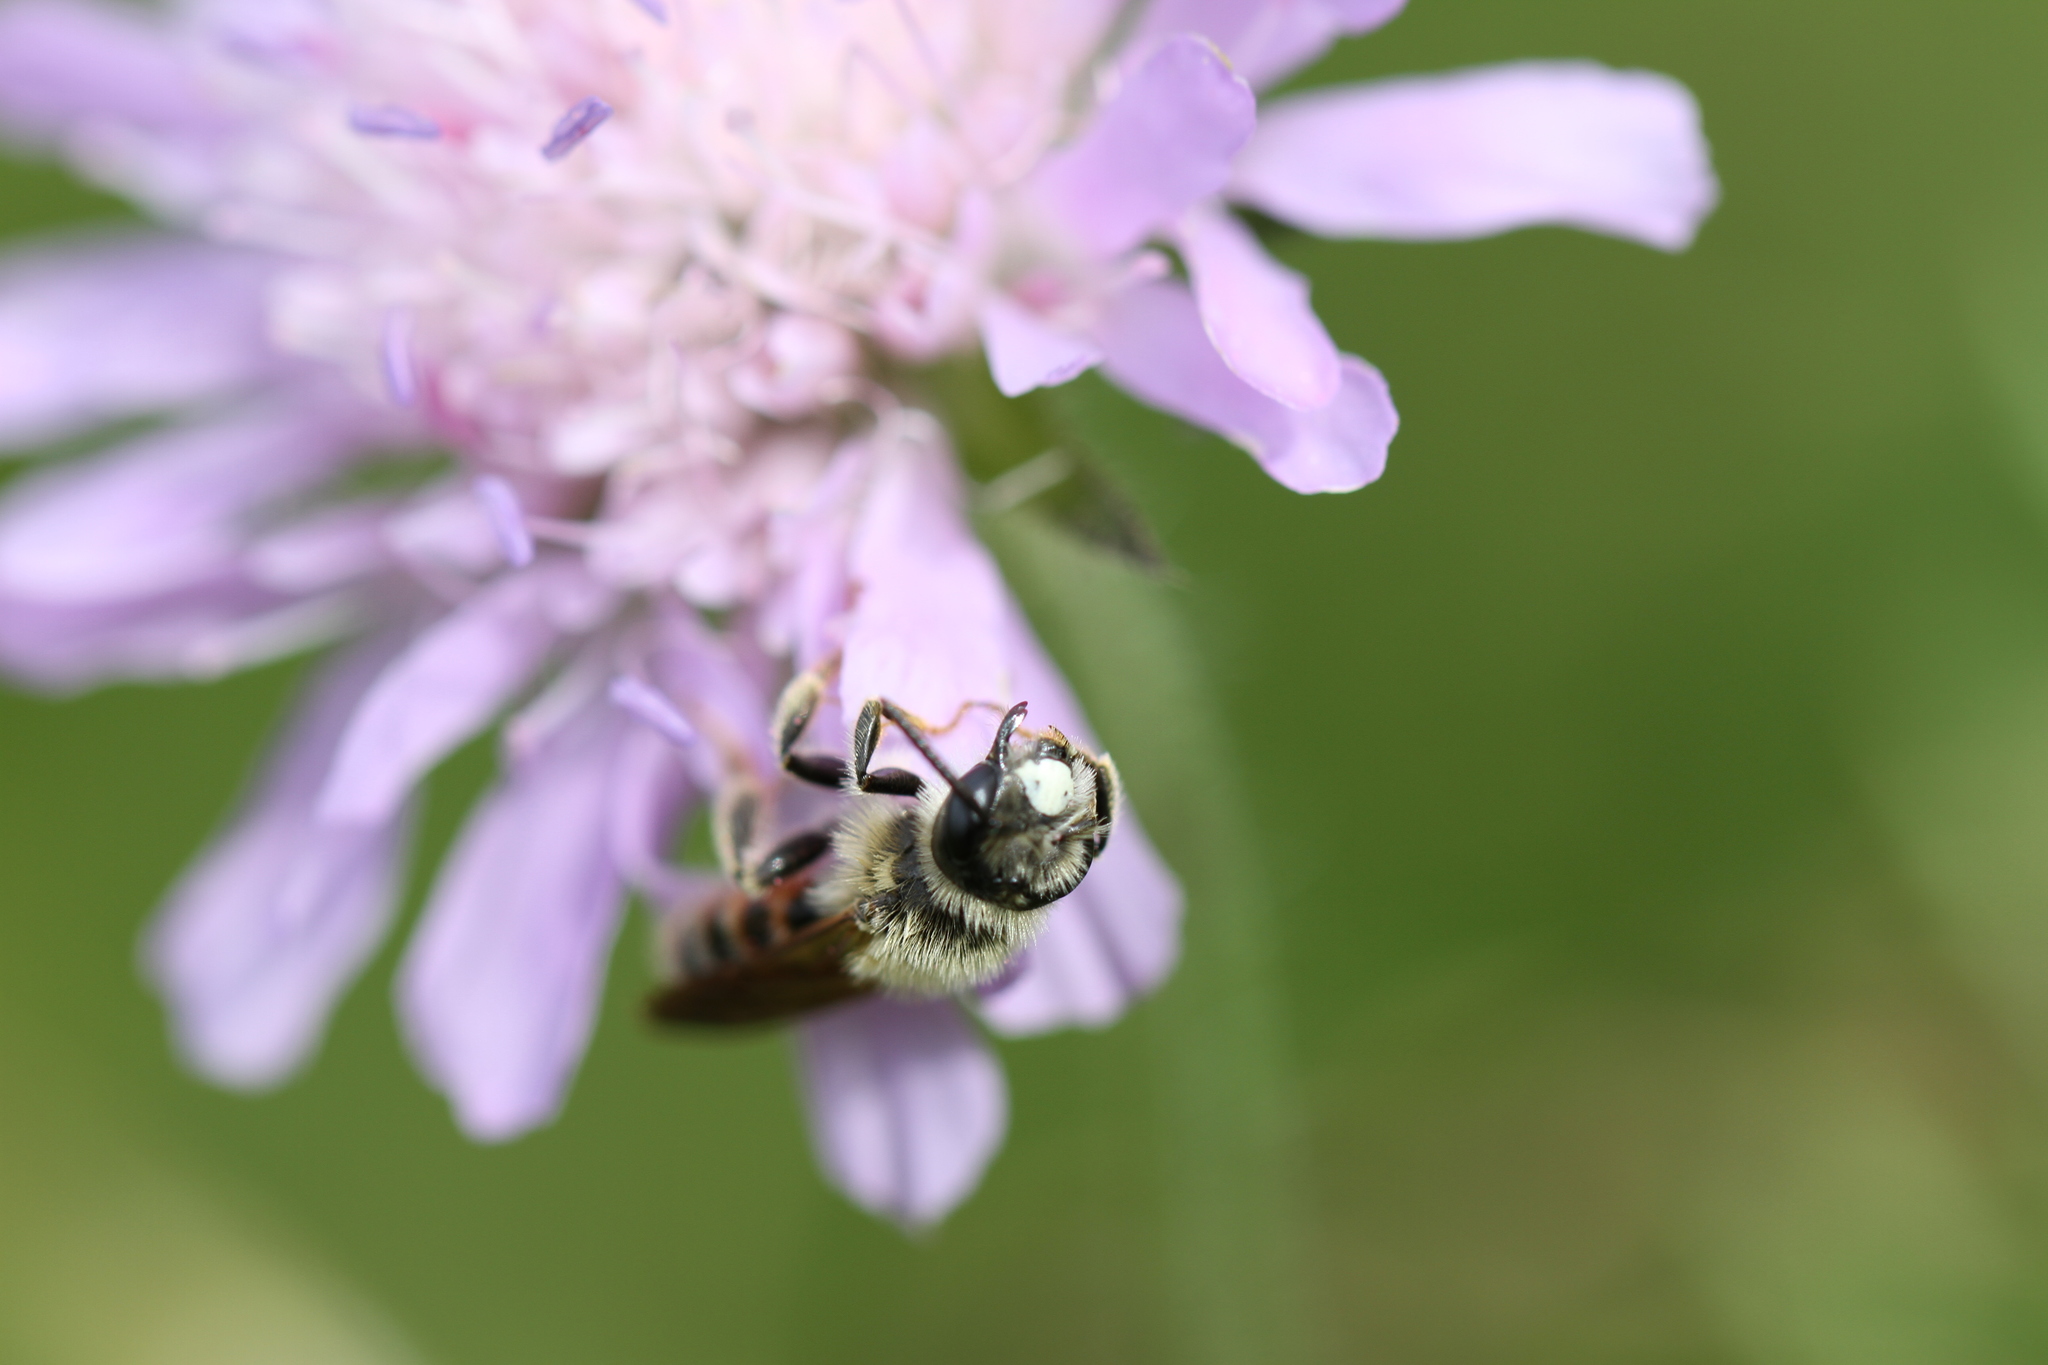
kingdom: Animalia
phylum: Arthropoda
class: Insecta
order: Hymenoptera
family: Andrenidae
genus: Andrena
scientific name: Andrena hattorfiana
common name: Large scabious mining bee
